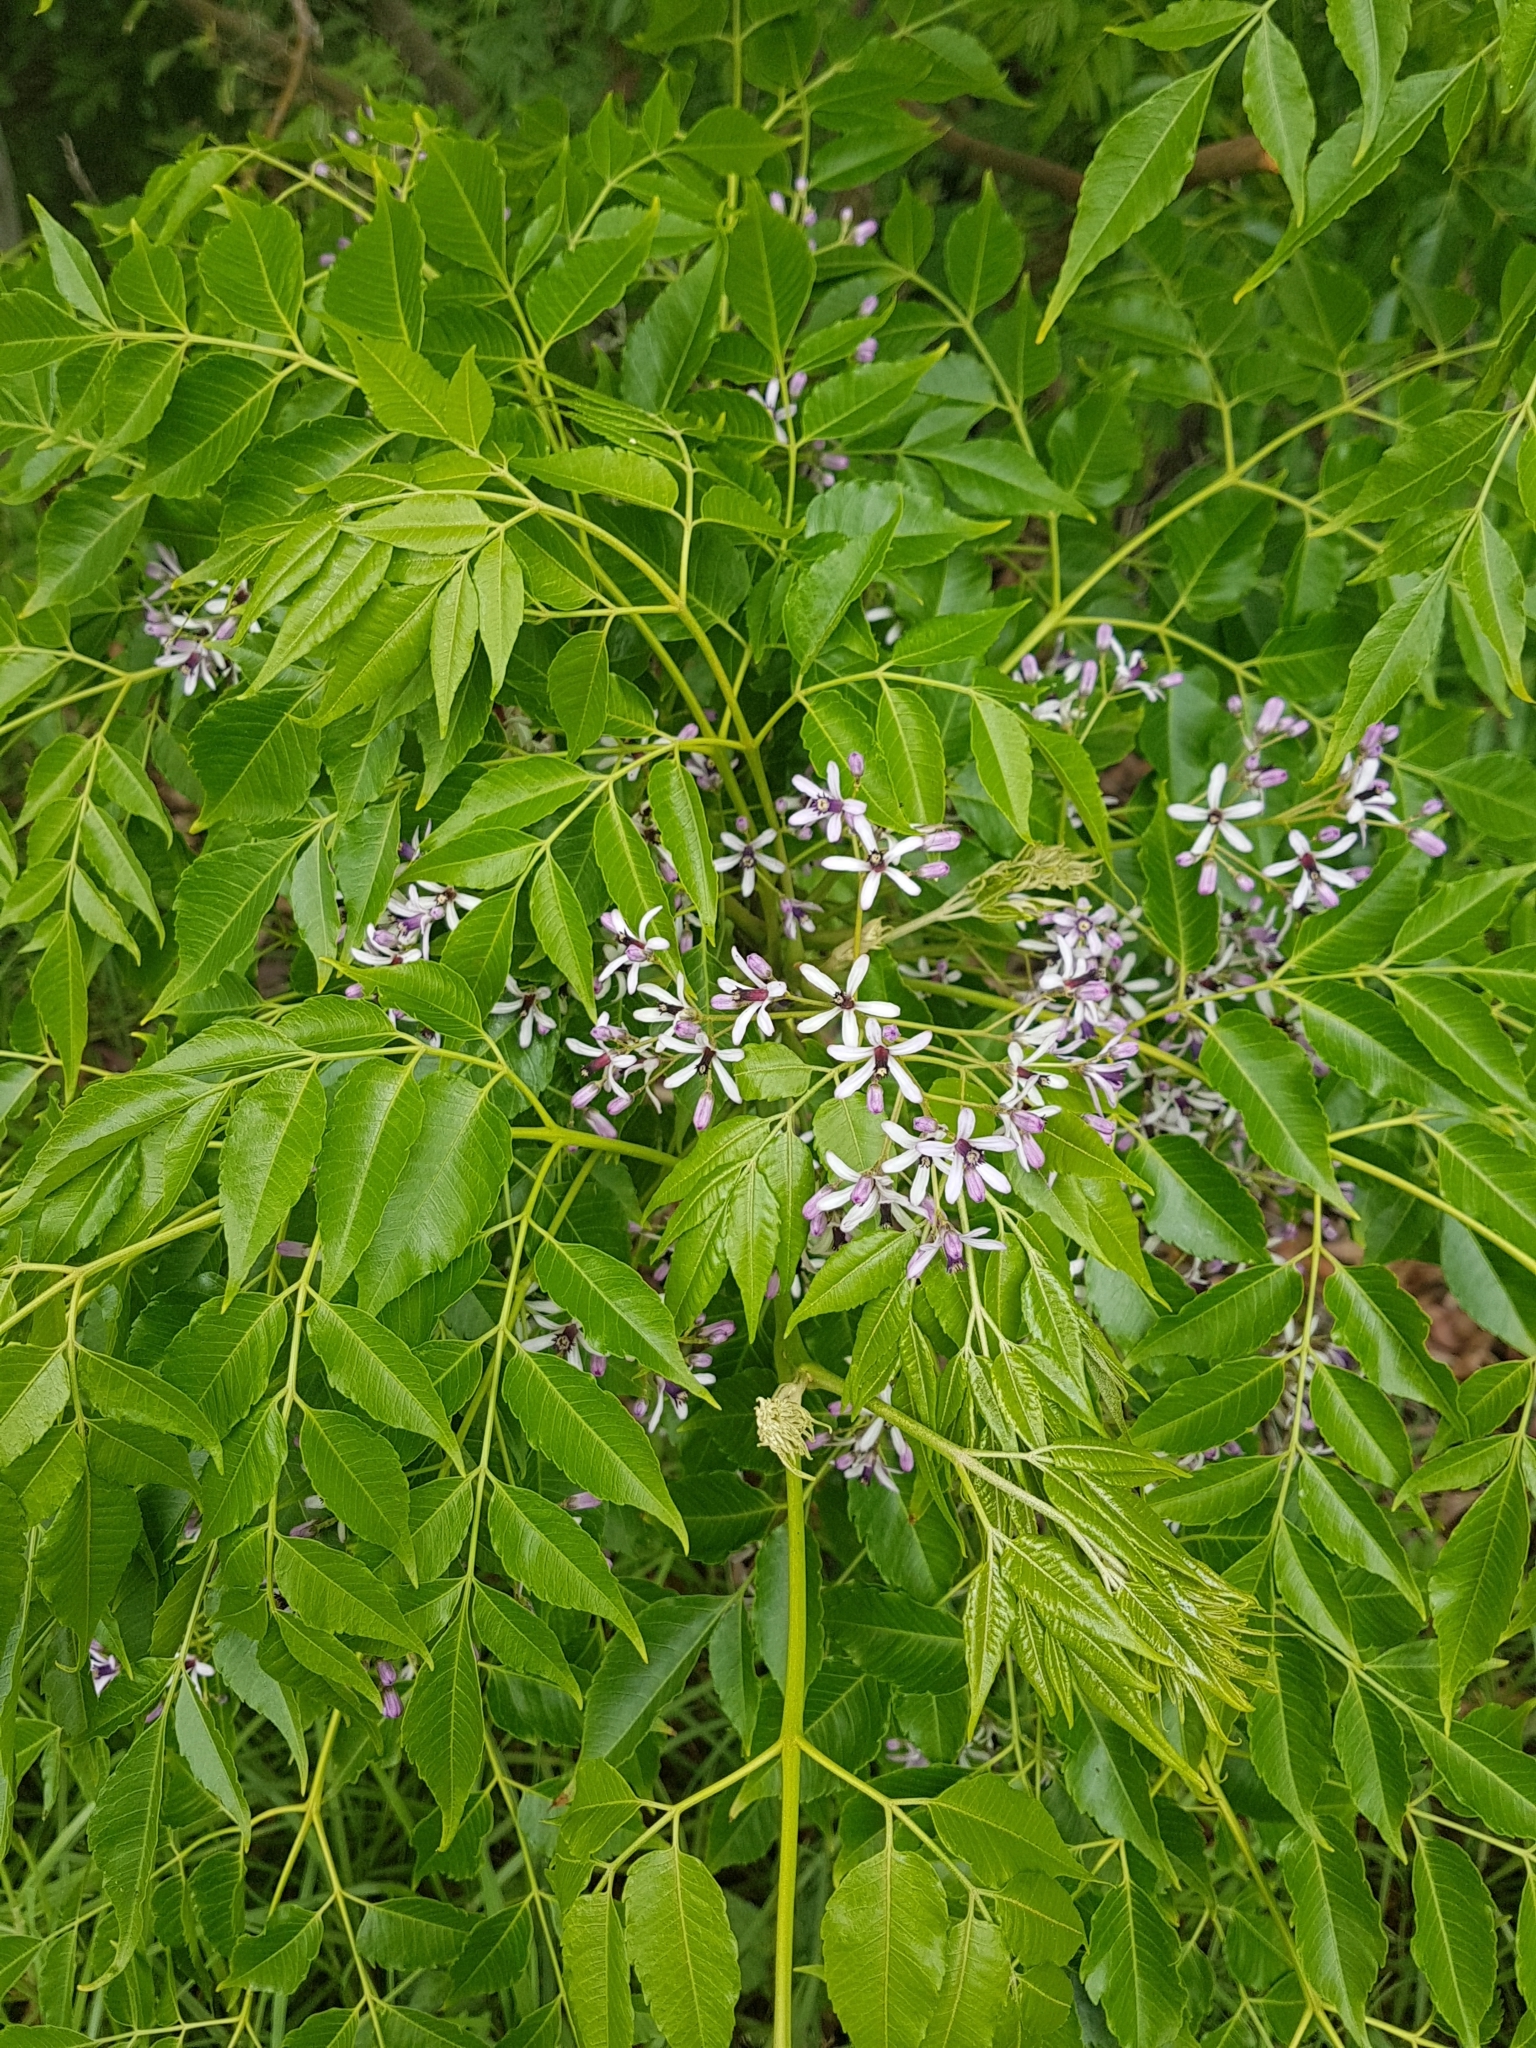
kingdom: Plantae
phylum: Tracheophyta
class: Magnoliopsida
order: Sapindales
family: Meliaceae
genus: Melia
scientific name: Melia azedarach
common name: Chinaberrytree
